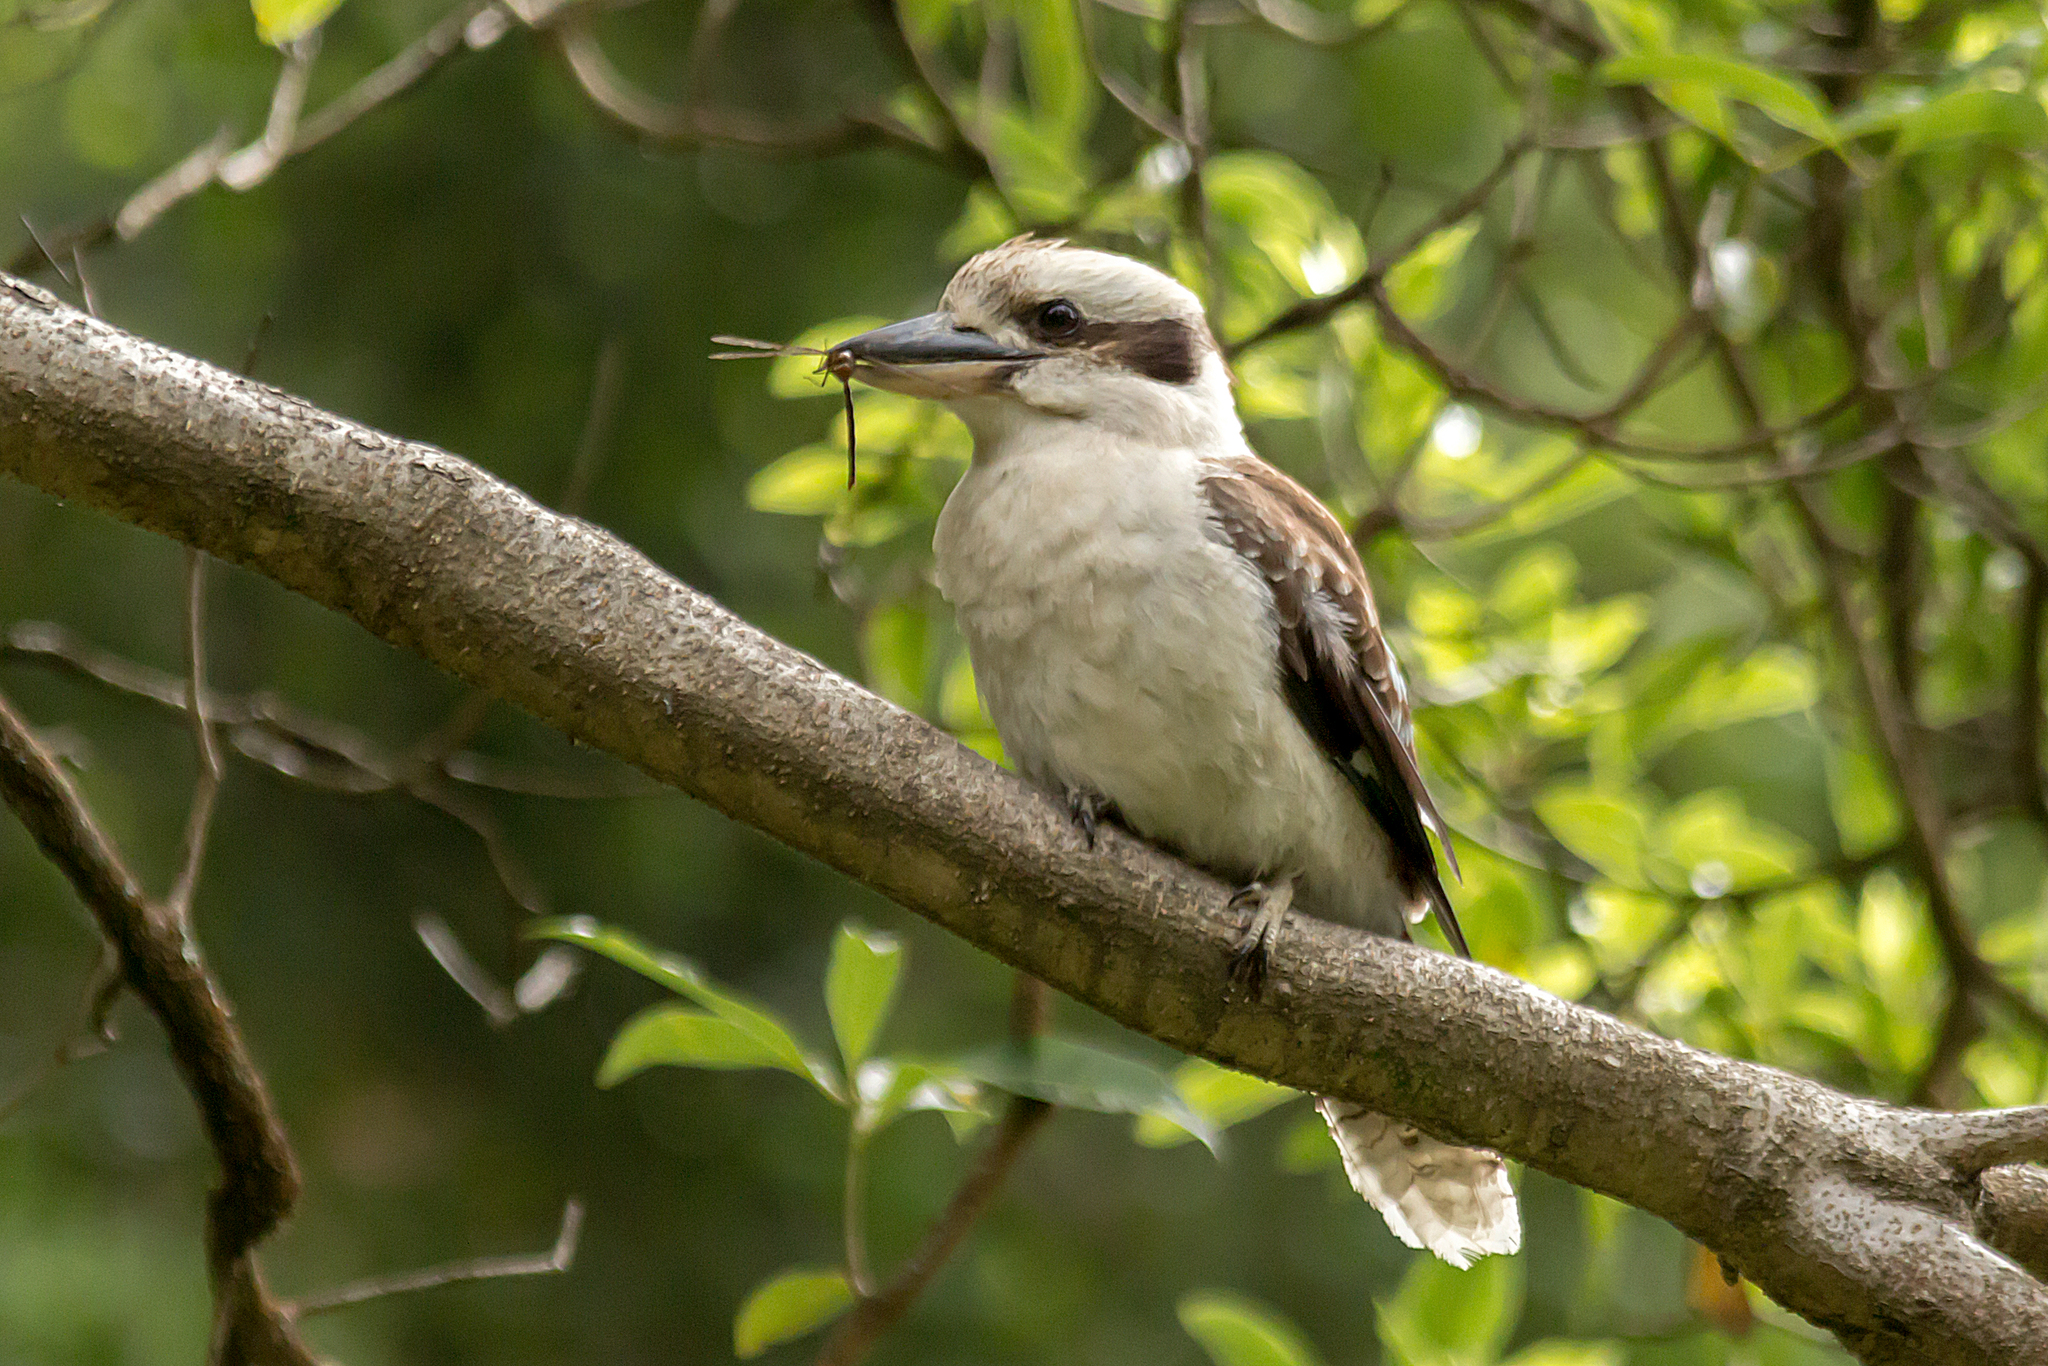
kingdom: Animalia
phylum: Chordata
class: Aves
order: Coraciiformes
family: Alcedinidae
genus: Dacelo
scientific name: Dacelo novaeguineae
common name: Laughing kookaburra
